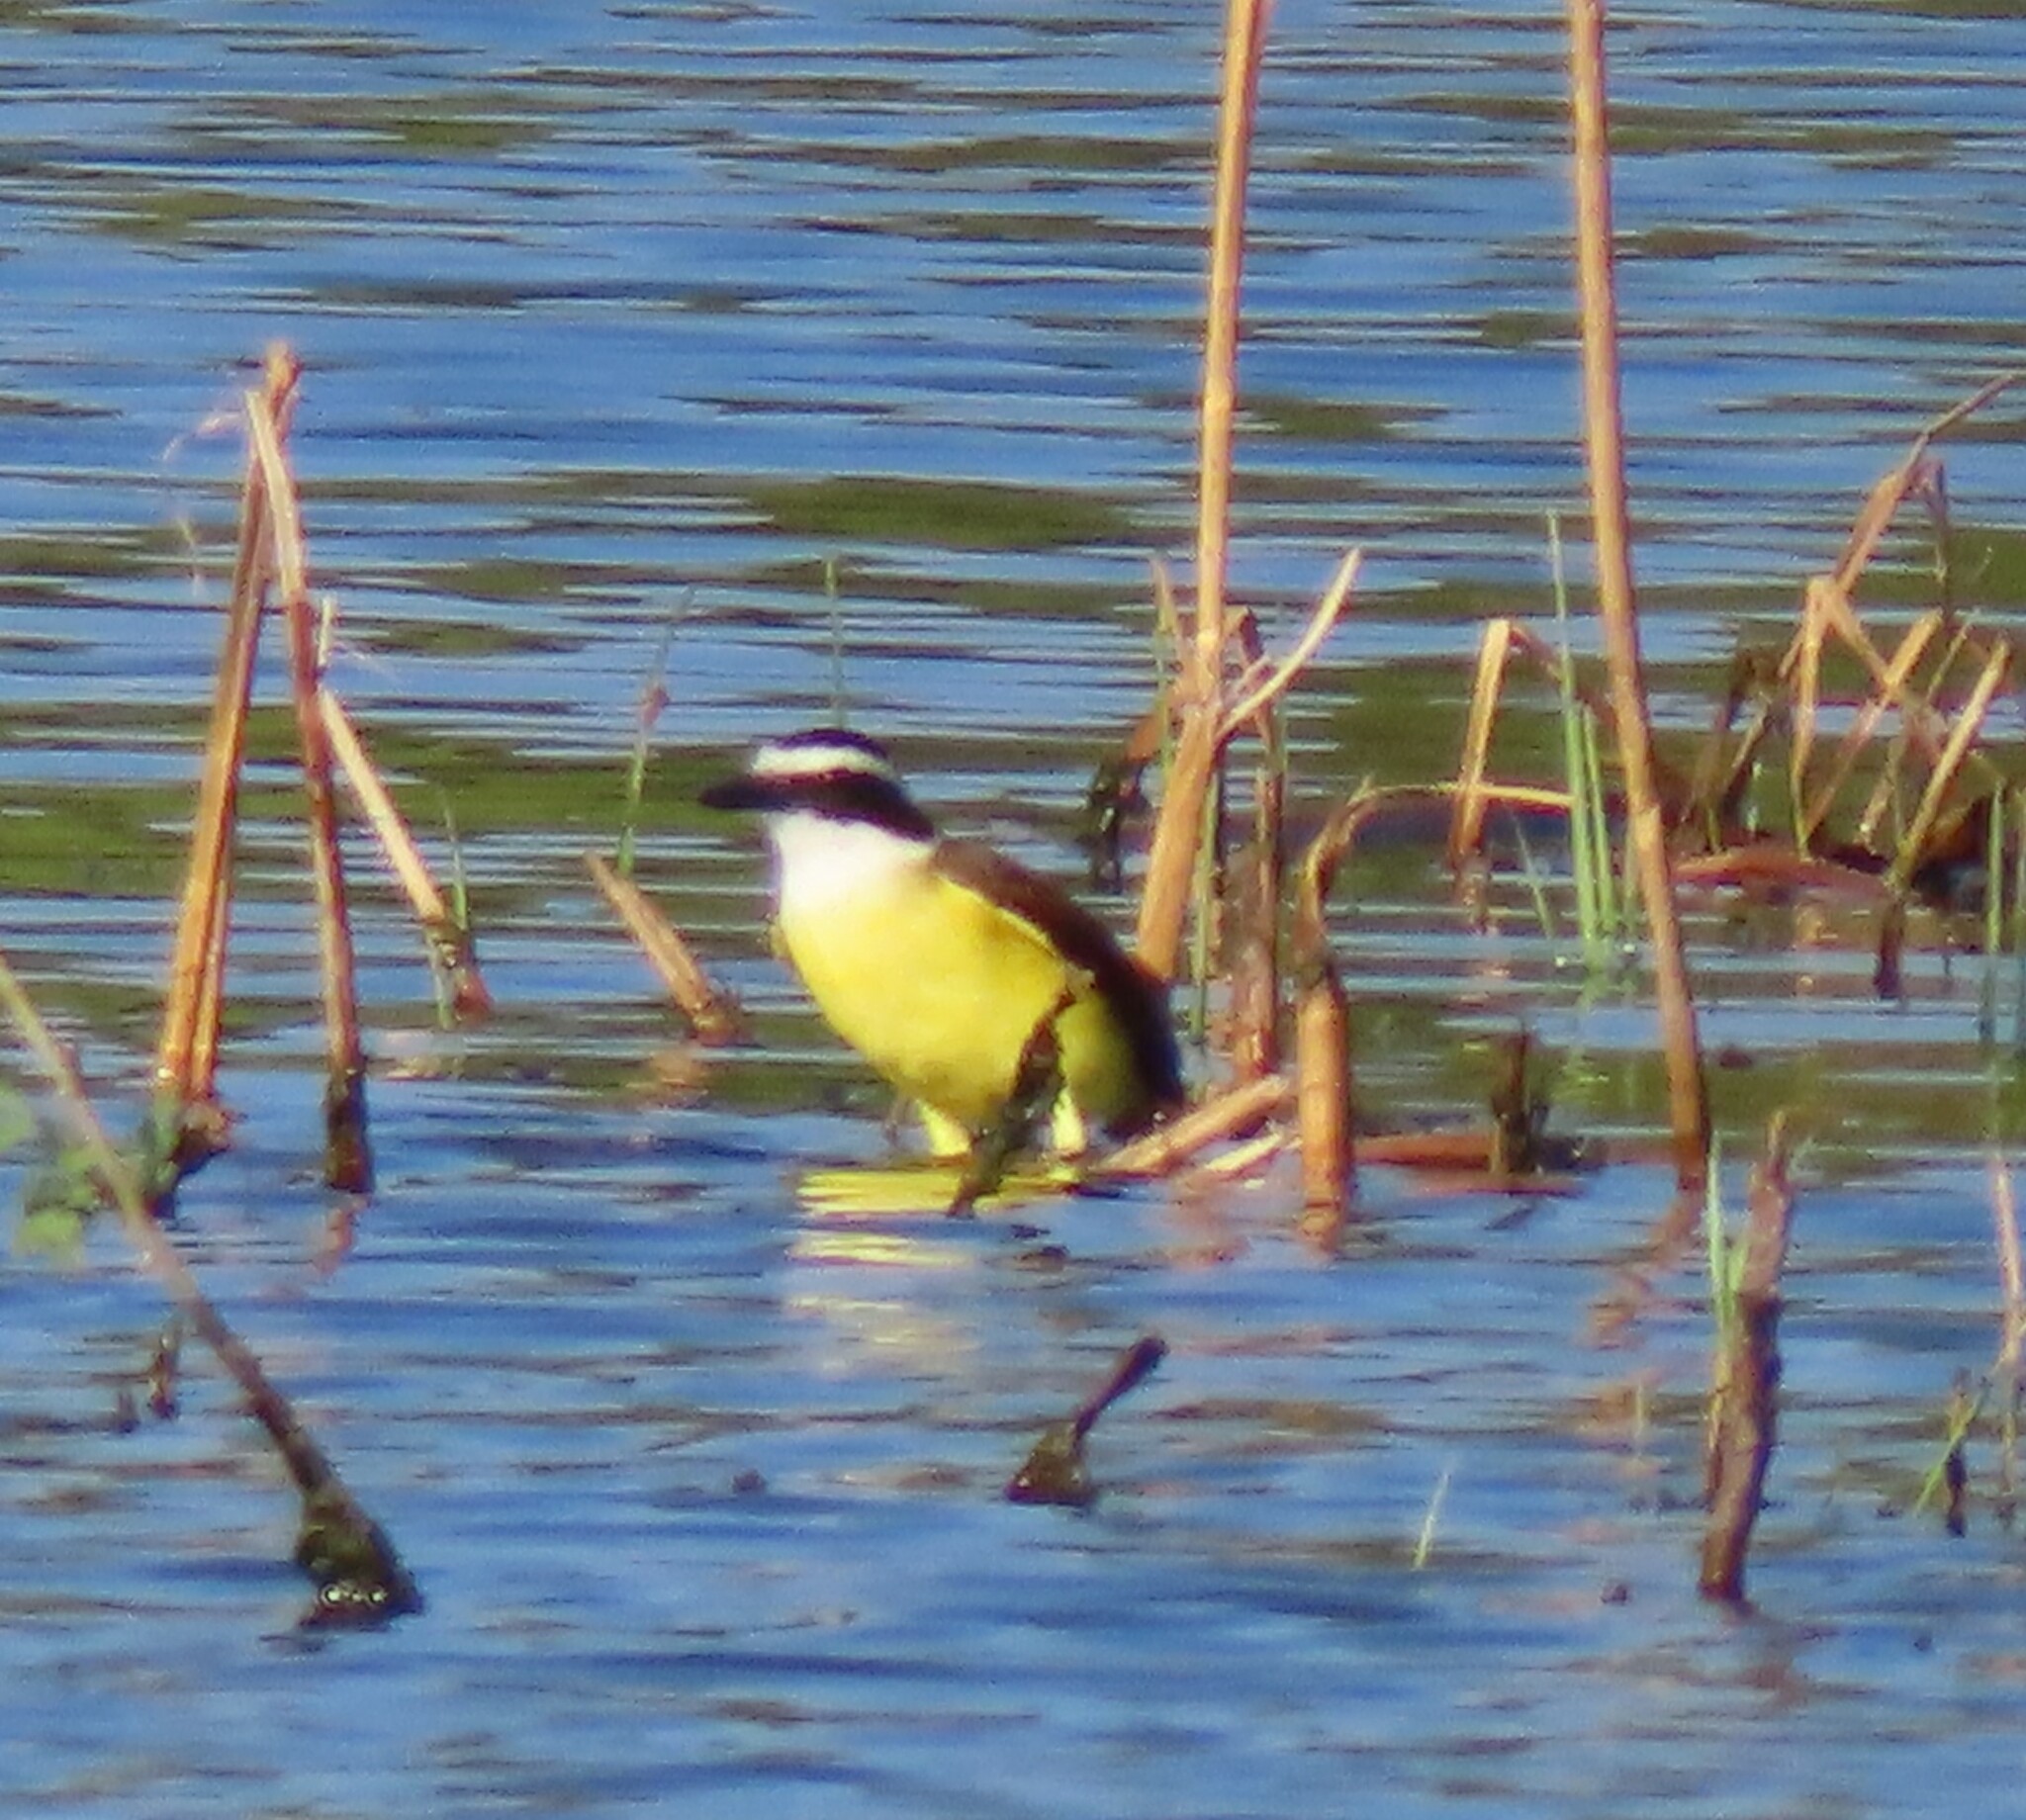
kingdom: Animalia
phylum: Chordata
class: Aves
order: Passeriformes
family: Tyrannidae
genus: Pitangus
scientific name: Pitangus sulphuratus
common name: Great kiskadee
